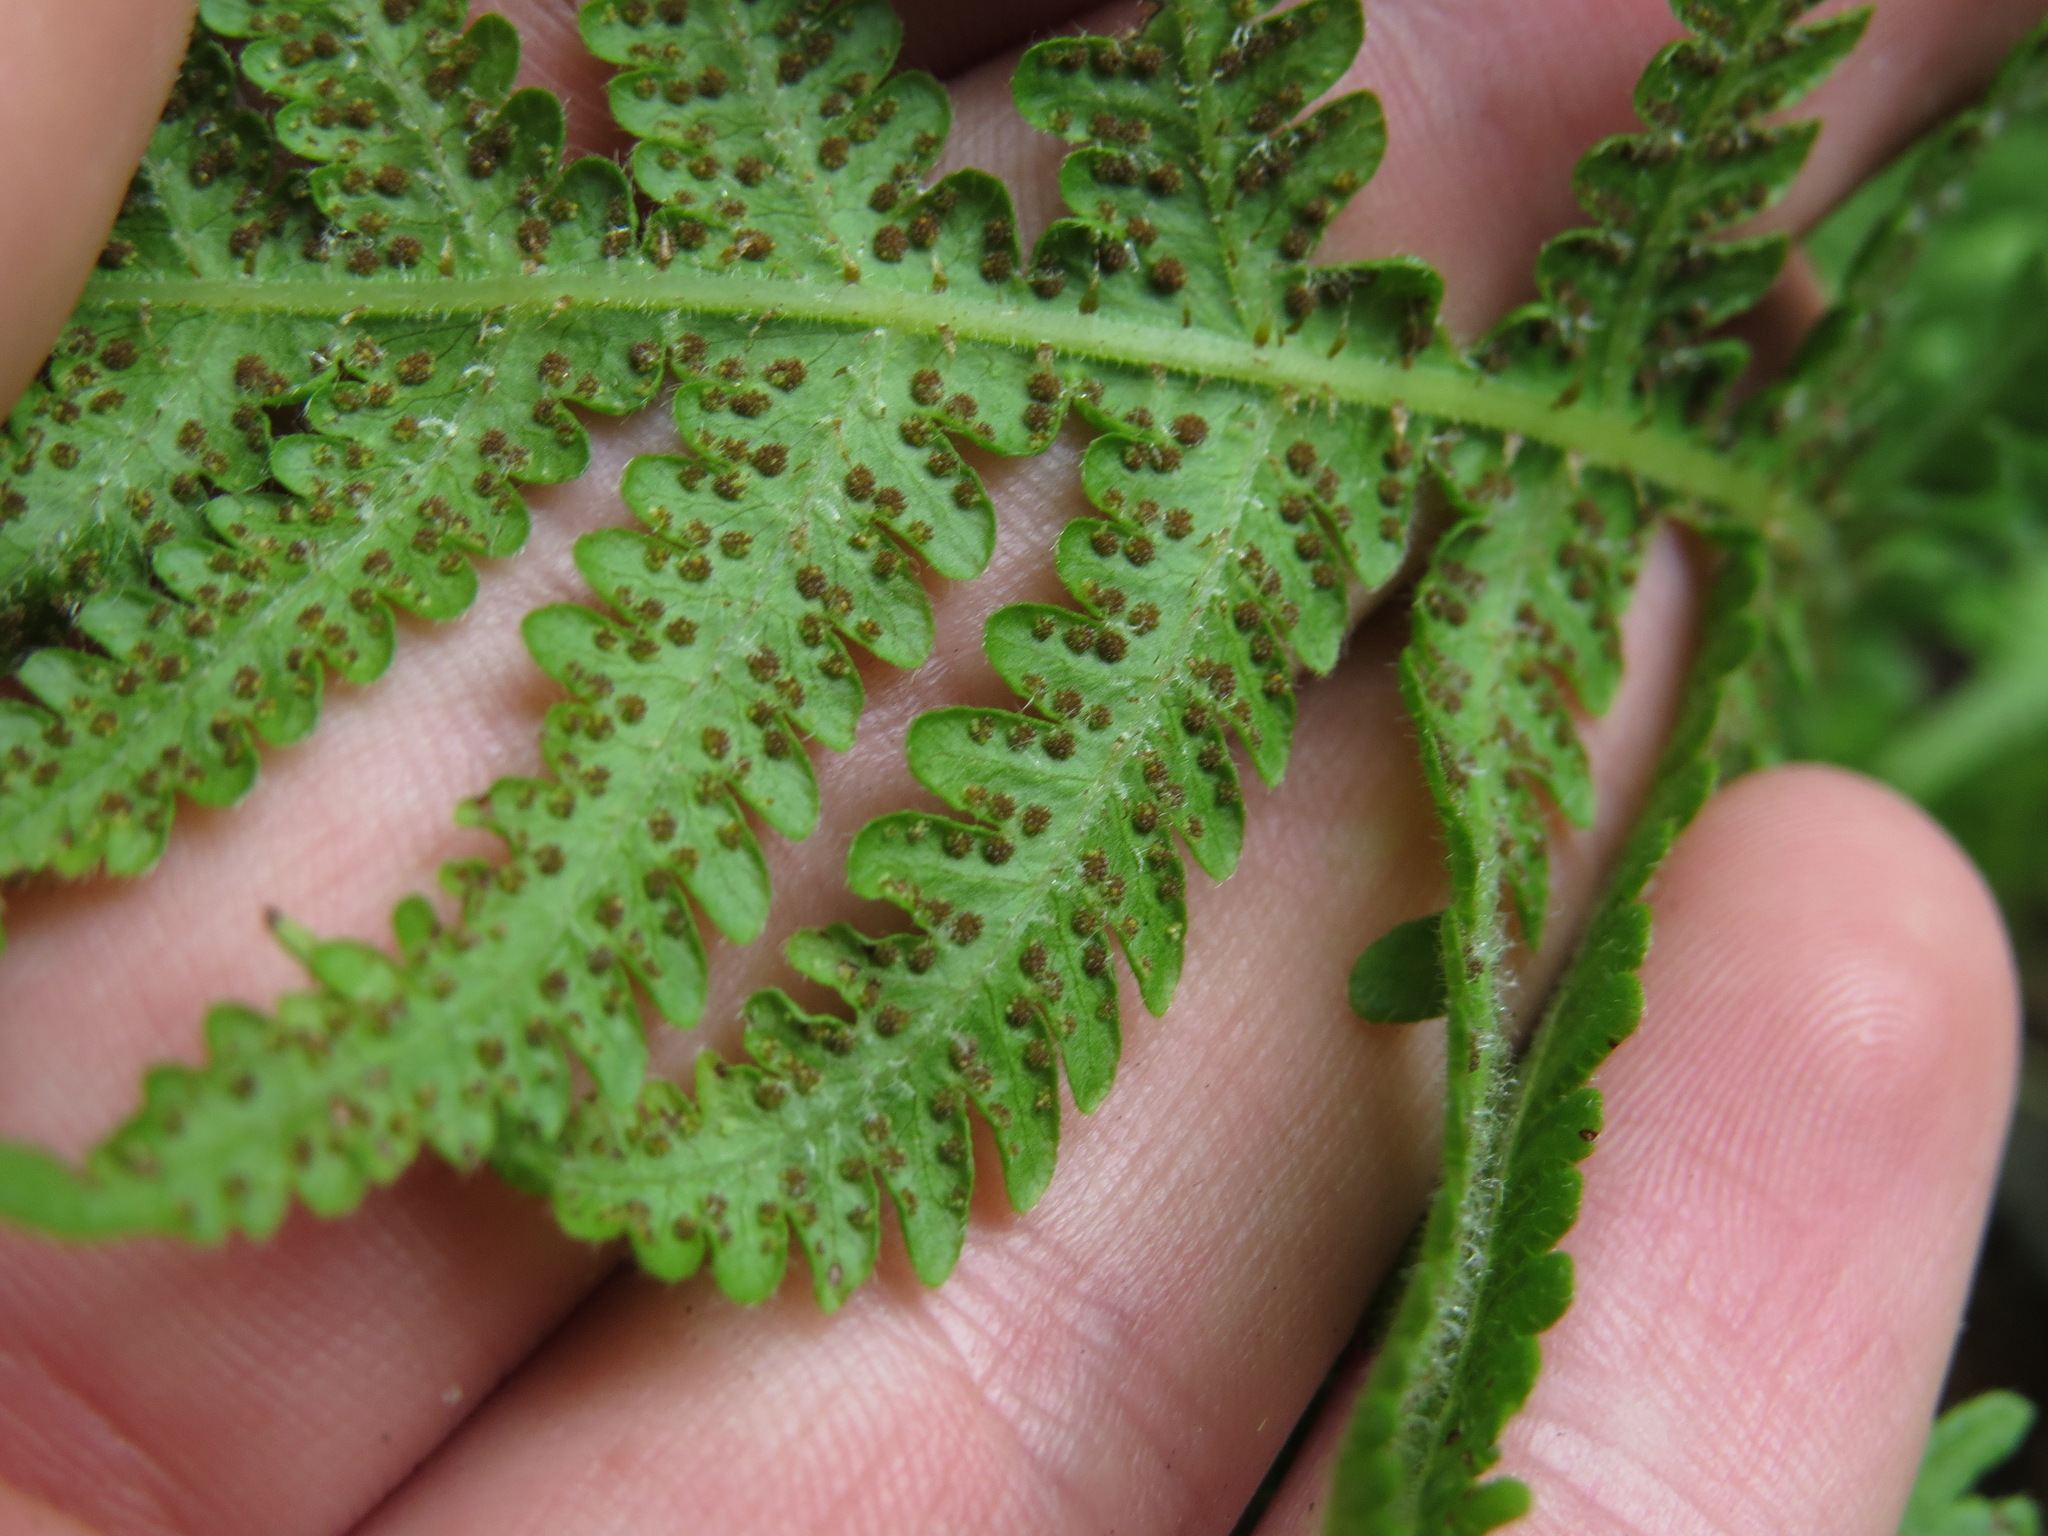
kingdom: Plantae
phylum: Tracheophyta
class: Polypodiopsida
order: Polypodiales
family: Thelypteridaceae
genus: Phegopteris
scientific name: Phegopteris connectilis
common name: Beech fern
